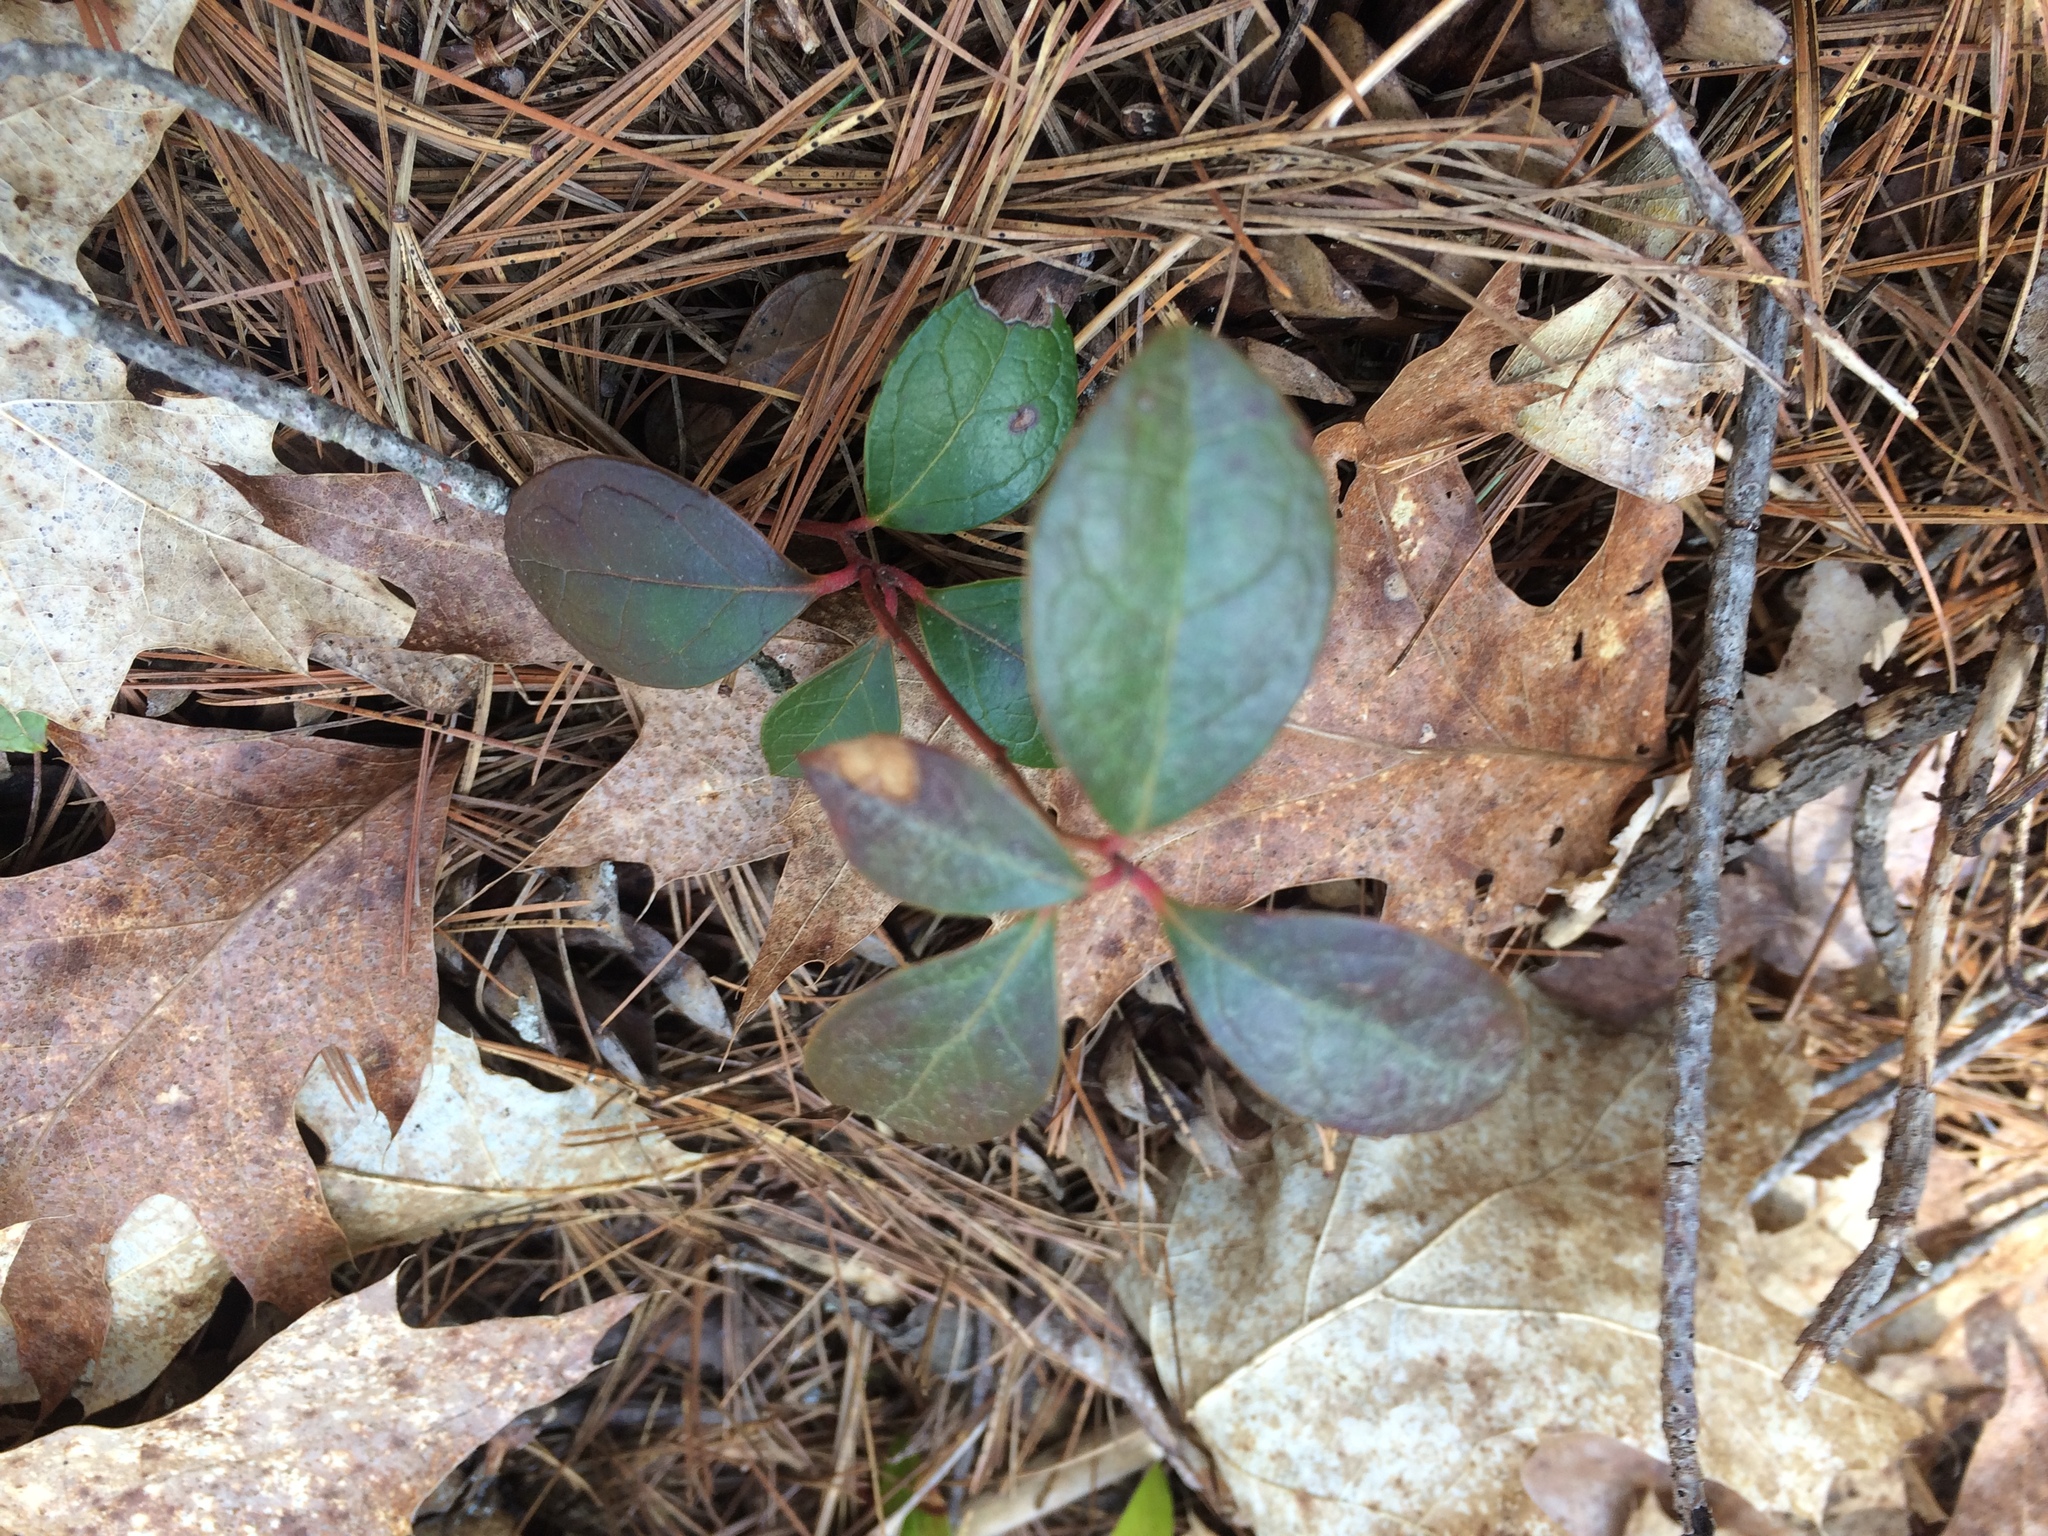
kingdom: Plantae
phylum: Tracheophyta
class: Magnoliopsida
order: Ericales
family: Ericaceae
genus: Gaultheria
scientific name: Gaultheria procumbens
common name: Checkerberry
